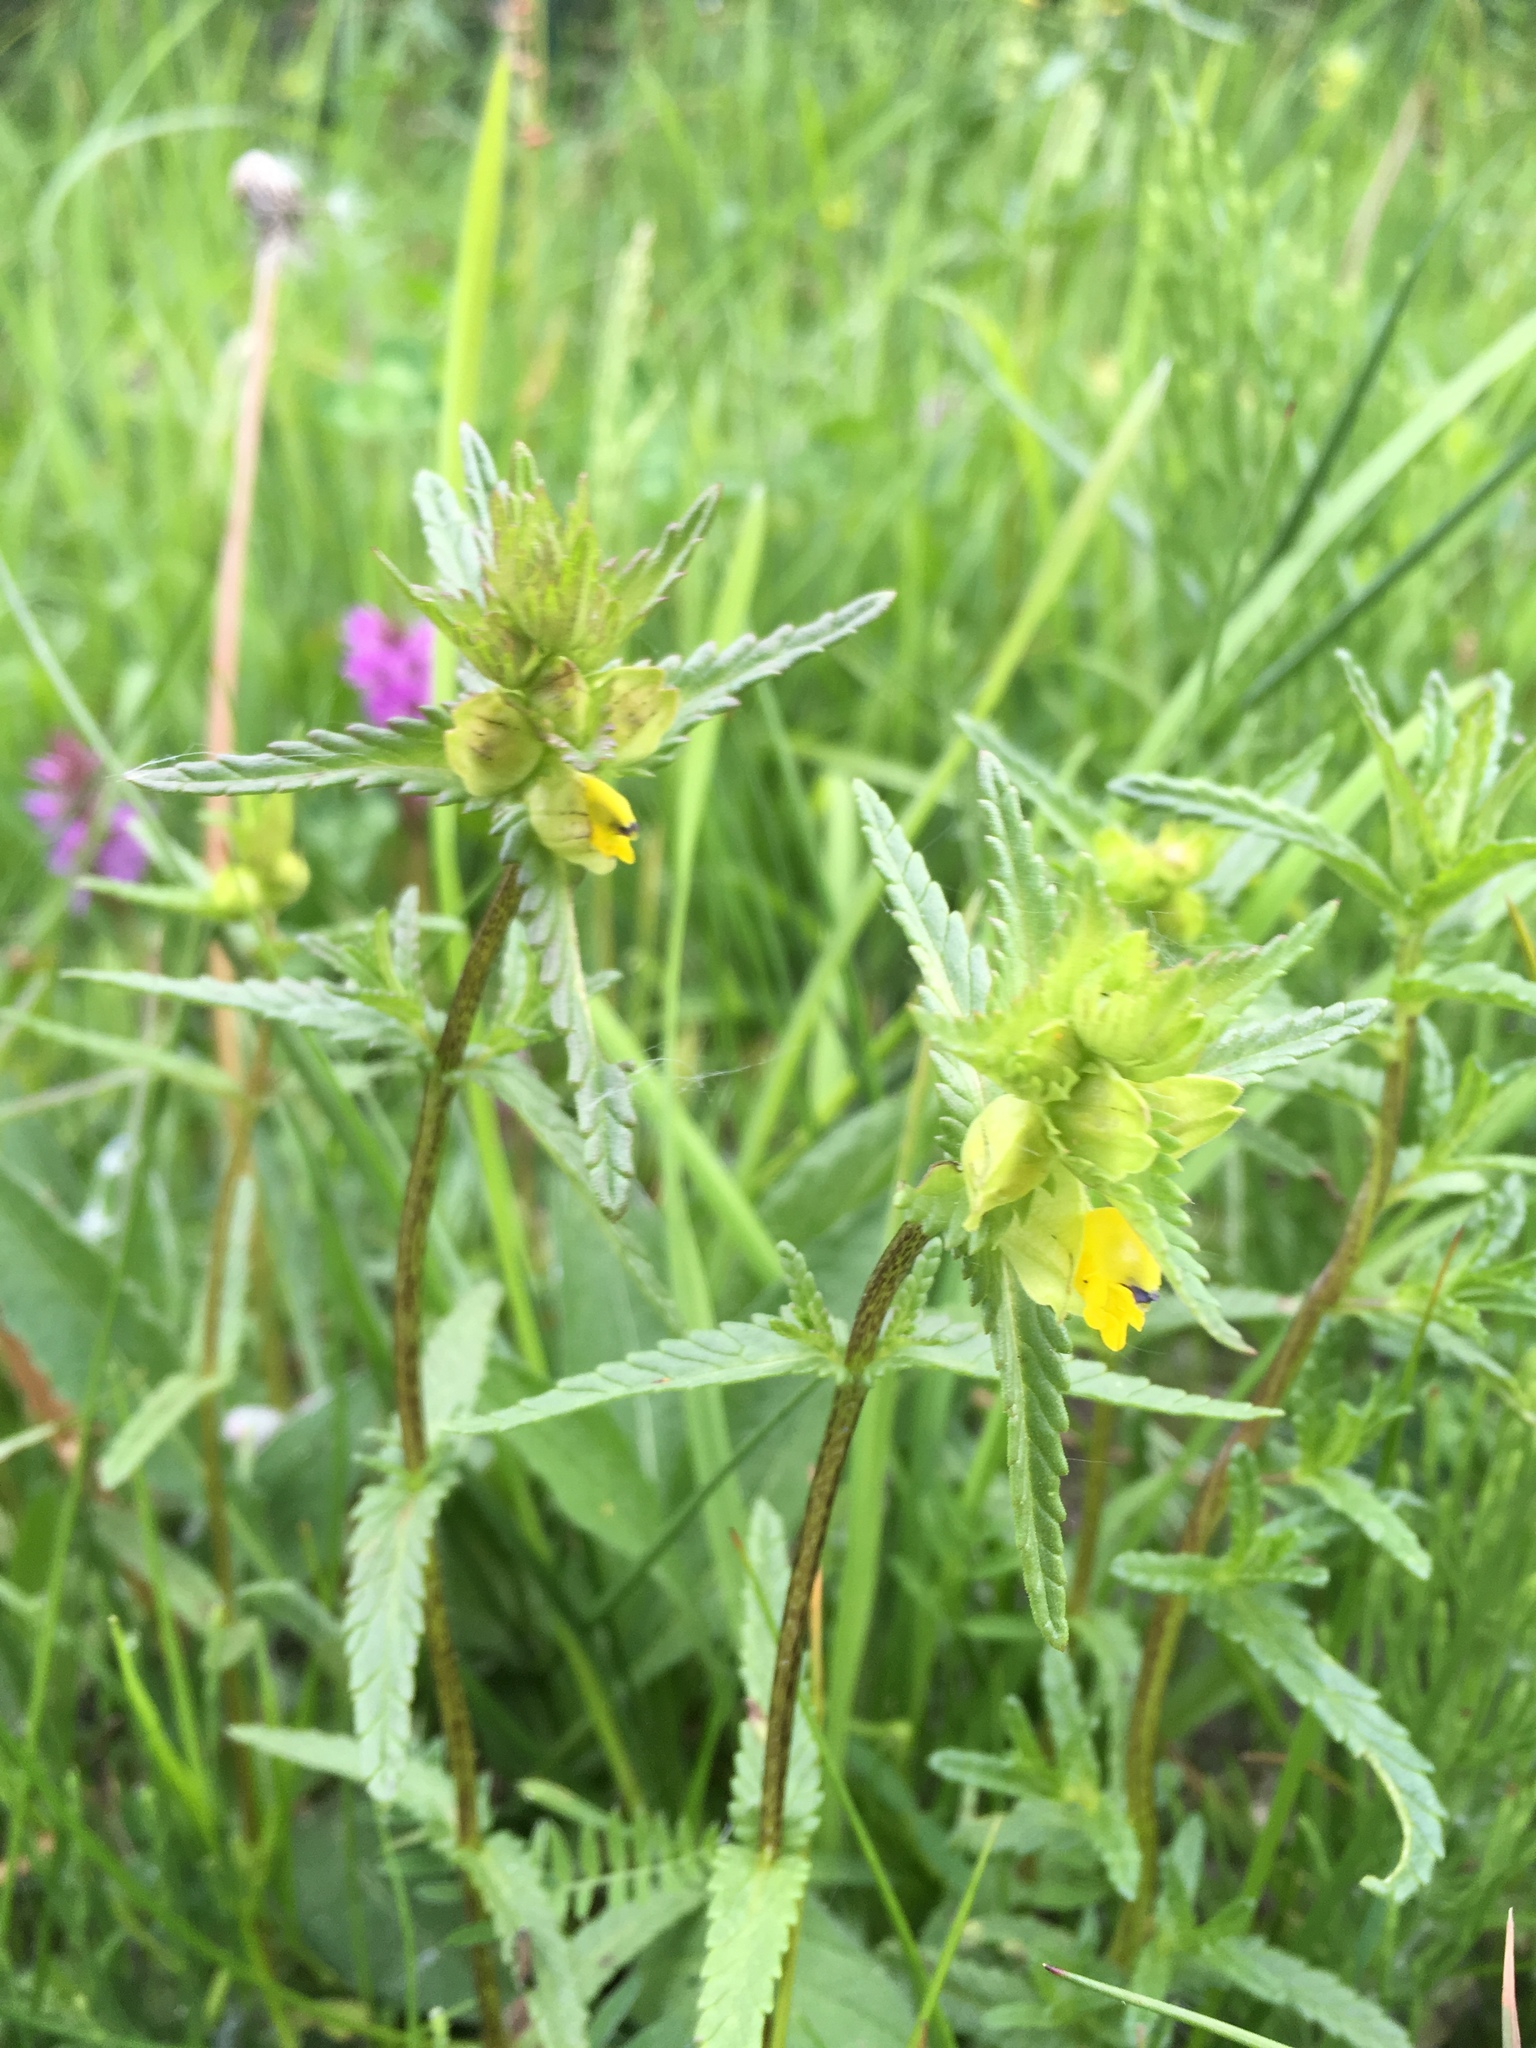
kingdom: Plantae
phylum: Tracheophyta
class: Magnoliopsida
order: Lamiales
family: Orobanchaceae
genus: Rhinanthus
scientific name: Rhinanthus minor
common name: Yellow-rattle
